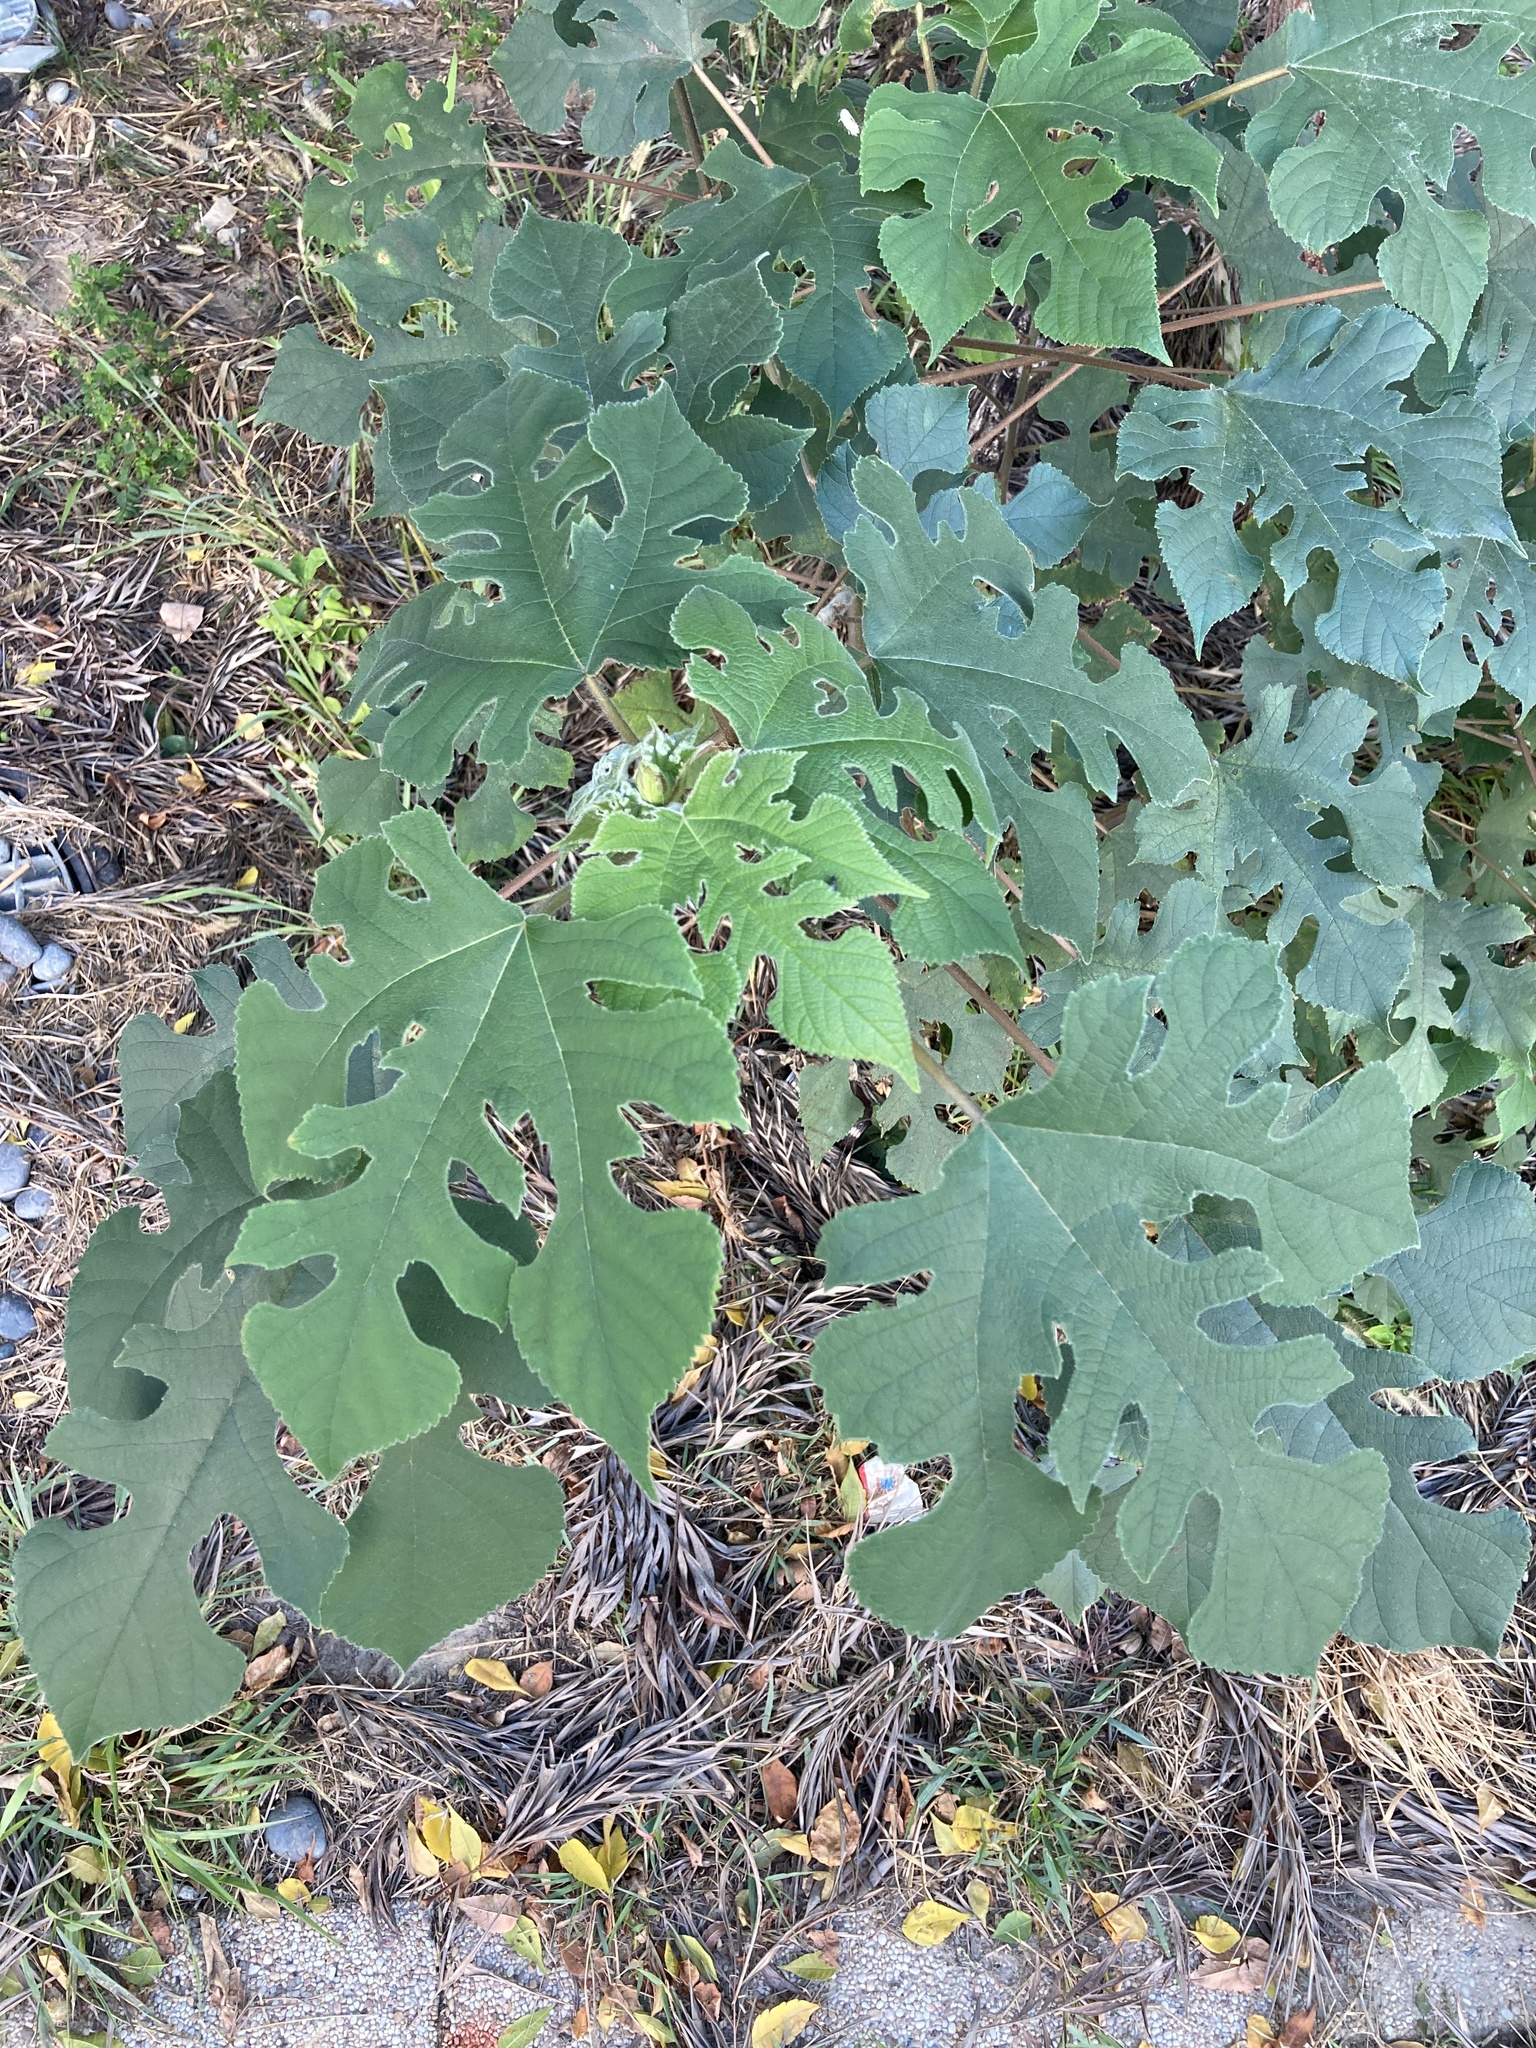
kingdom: Plantae
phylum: Tracheophyta
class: Magnoliopsida
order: Rosales
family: Moraceae
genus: Broussonetia
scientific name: Broussonetia papyrifera
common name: Paper mulberry
